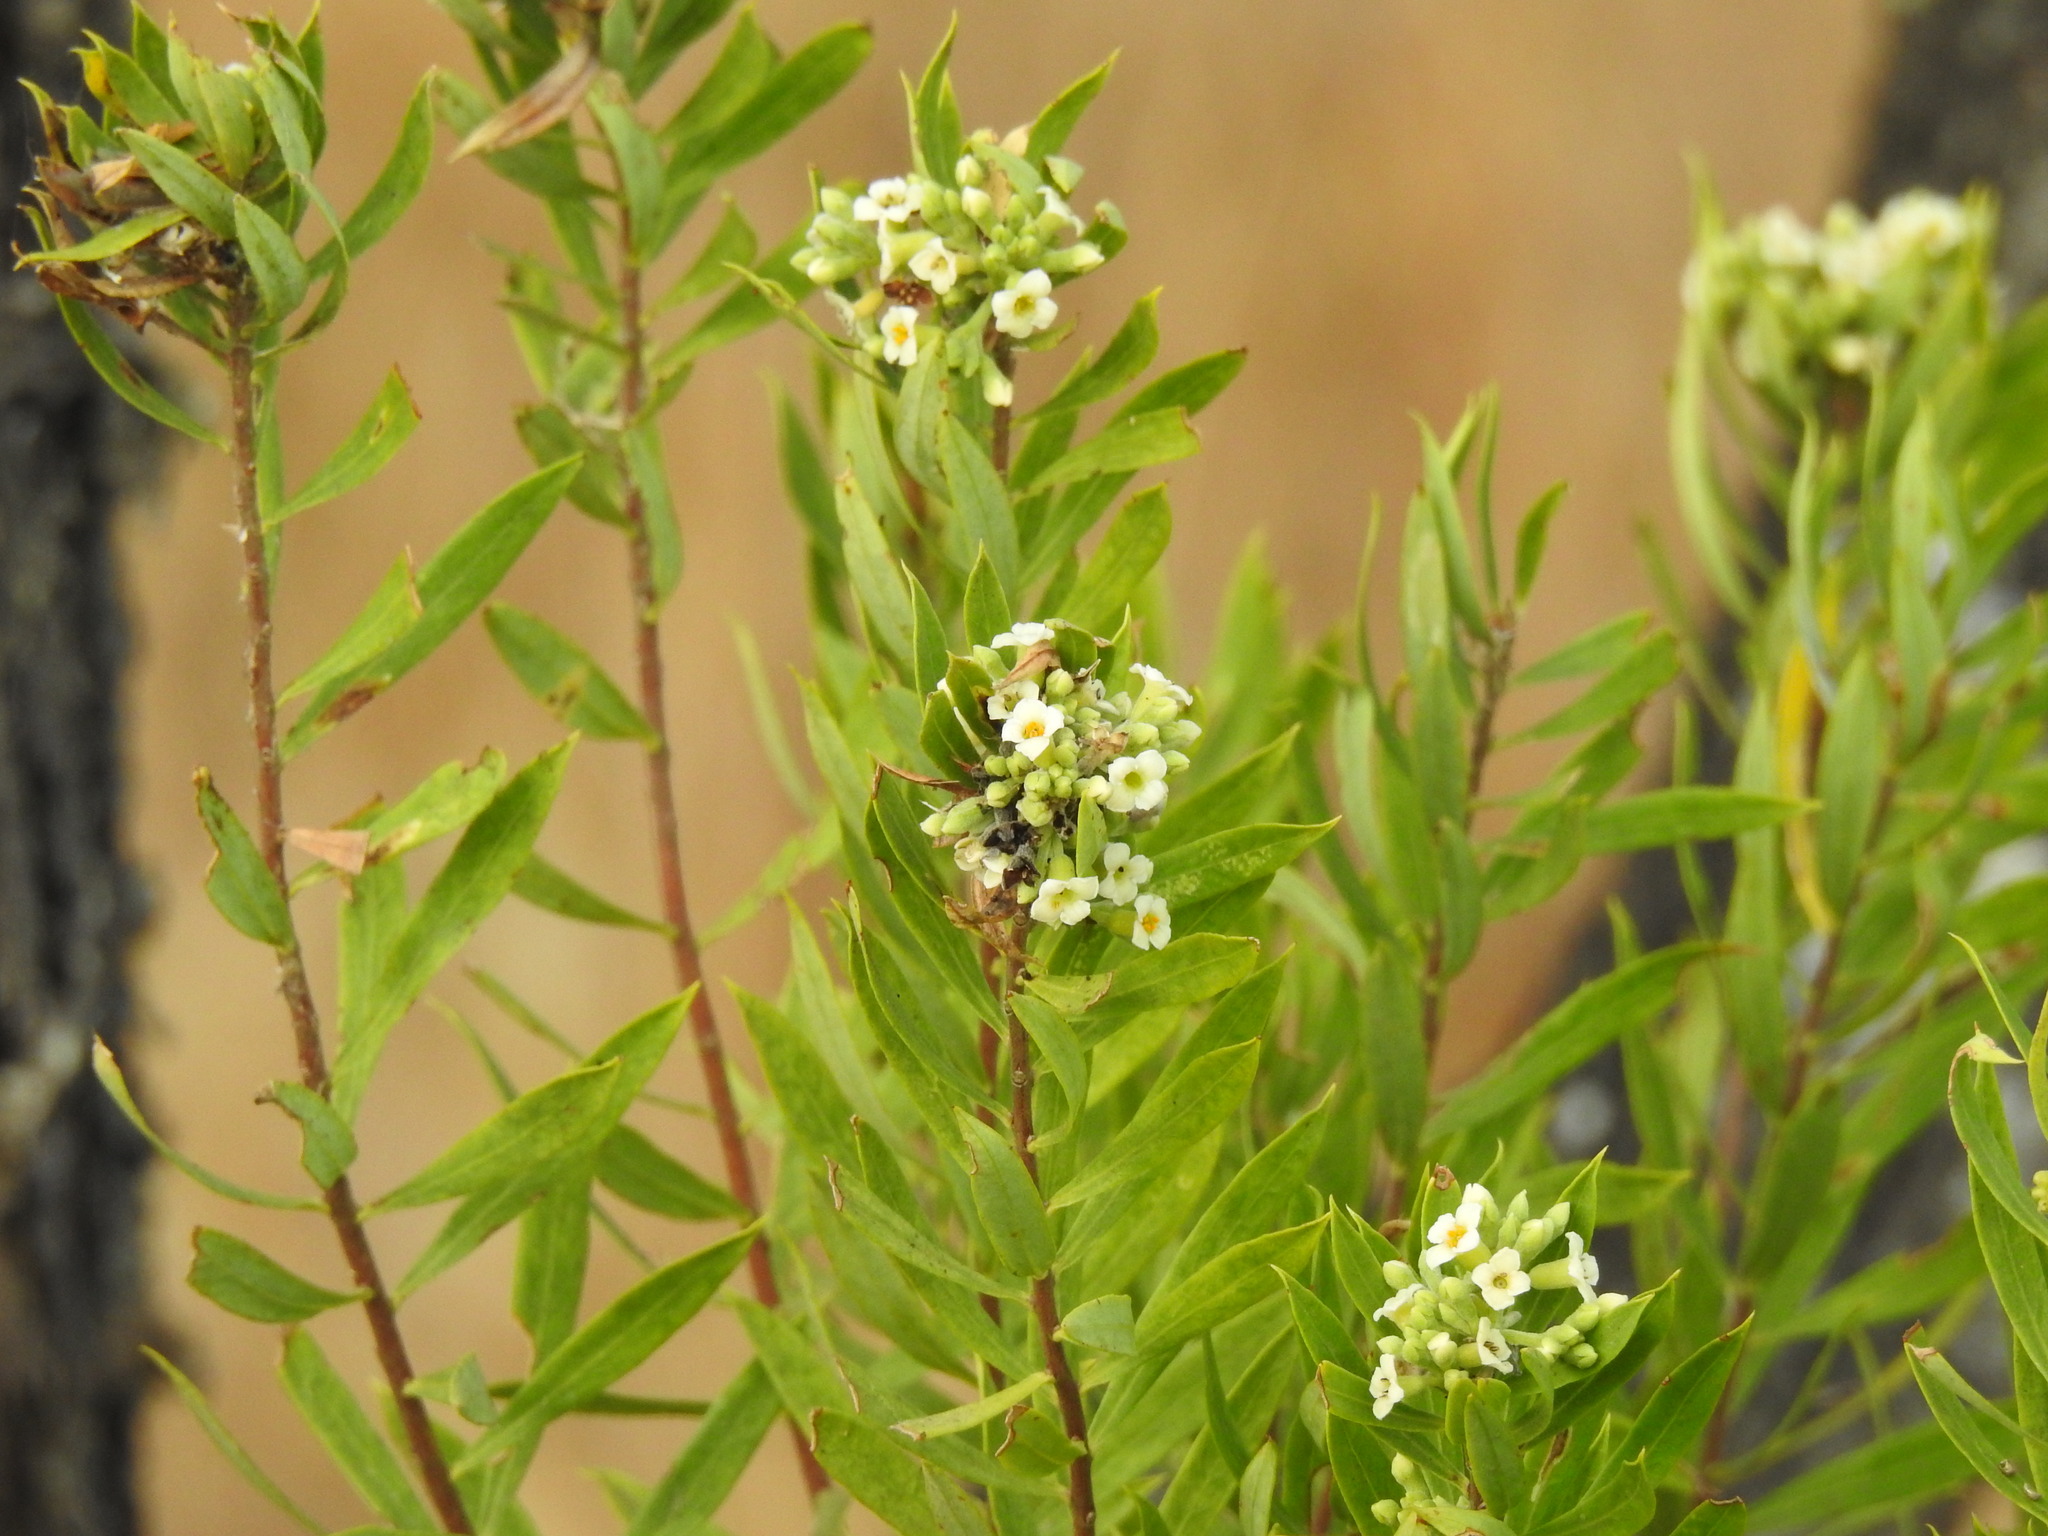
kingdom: Plantae
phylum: Tracheophyta
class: Magnoliopsida
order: Malvales
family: Thymelaeaceae
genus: Daphne
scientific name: Daphne gnidium
